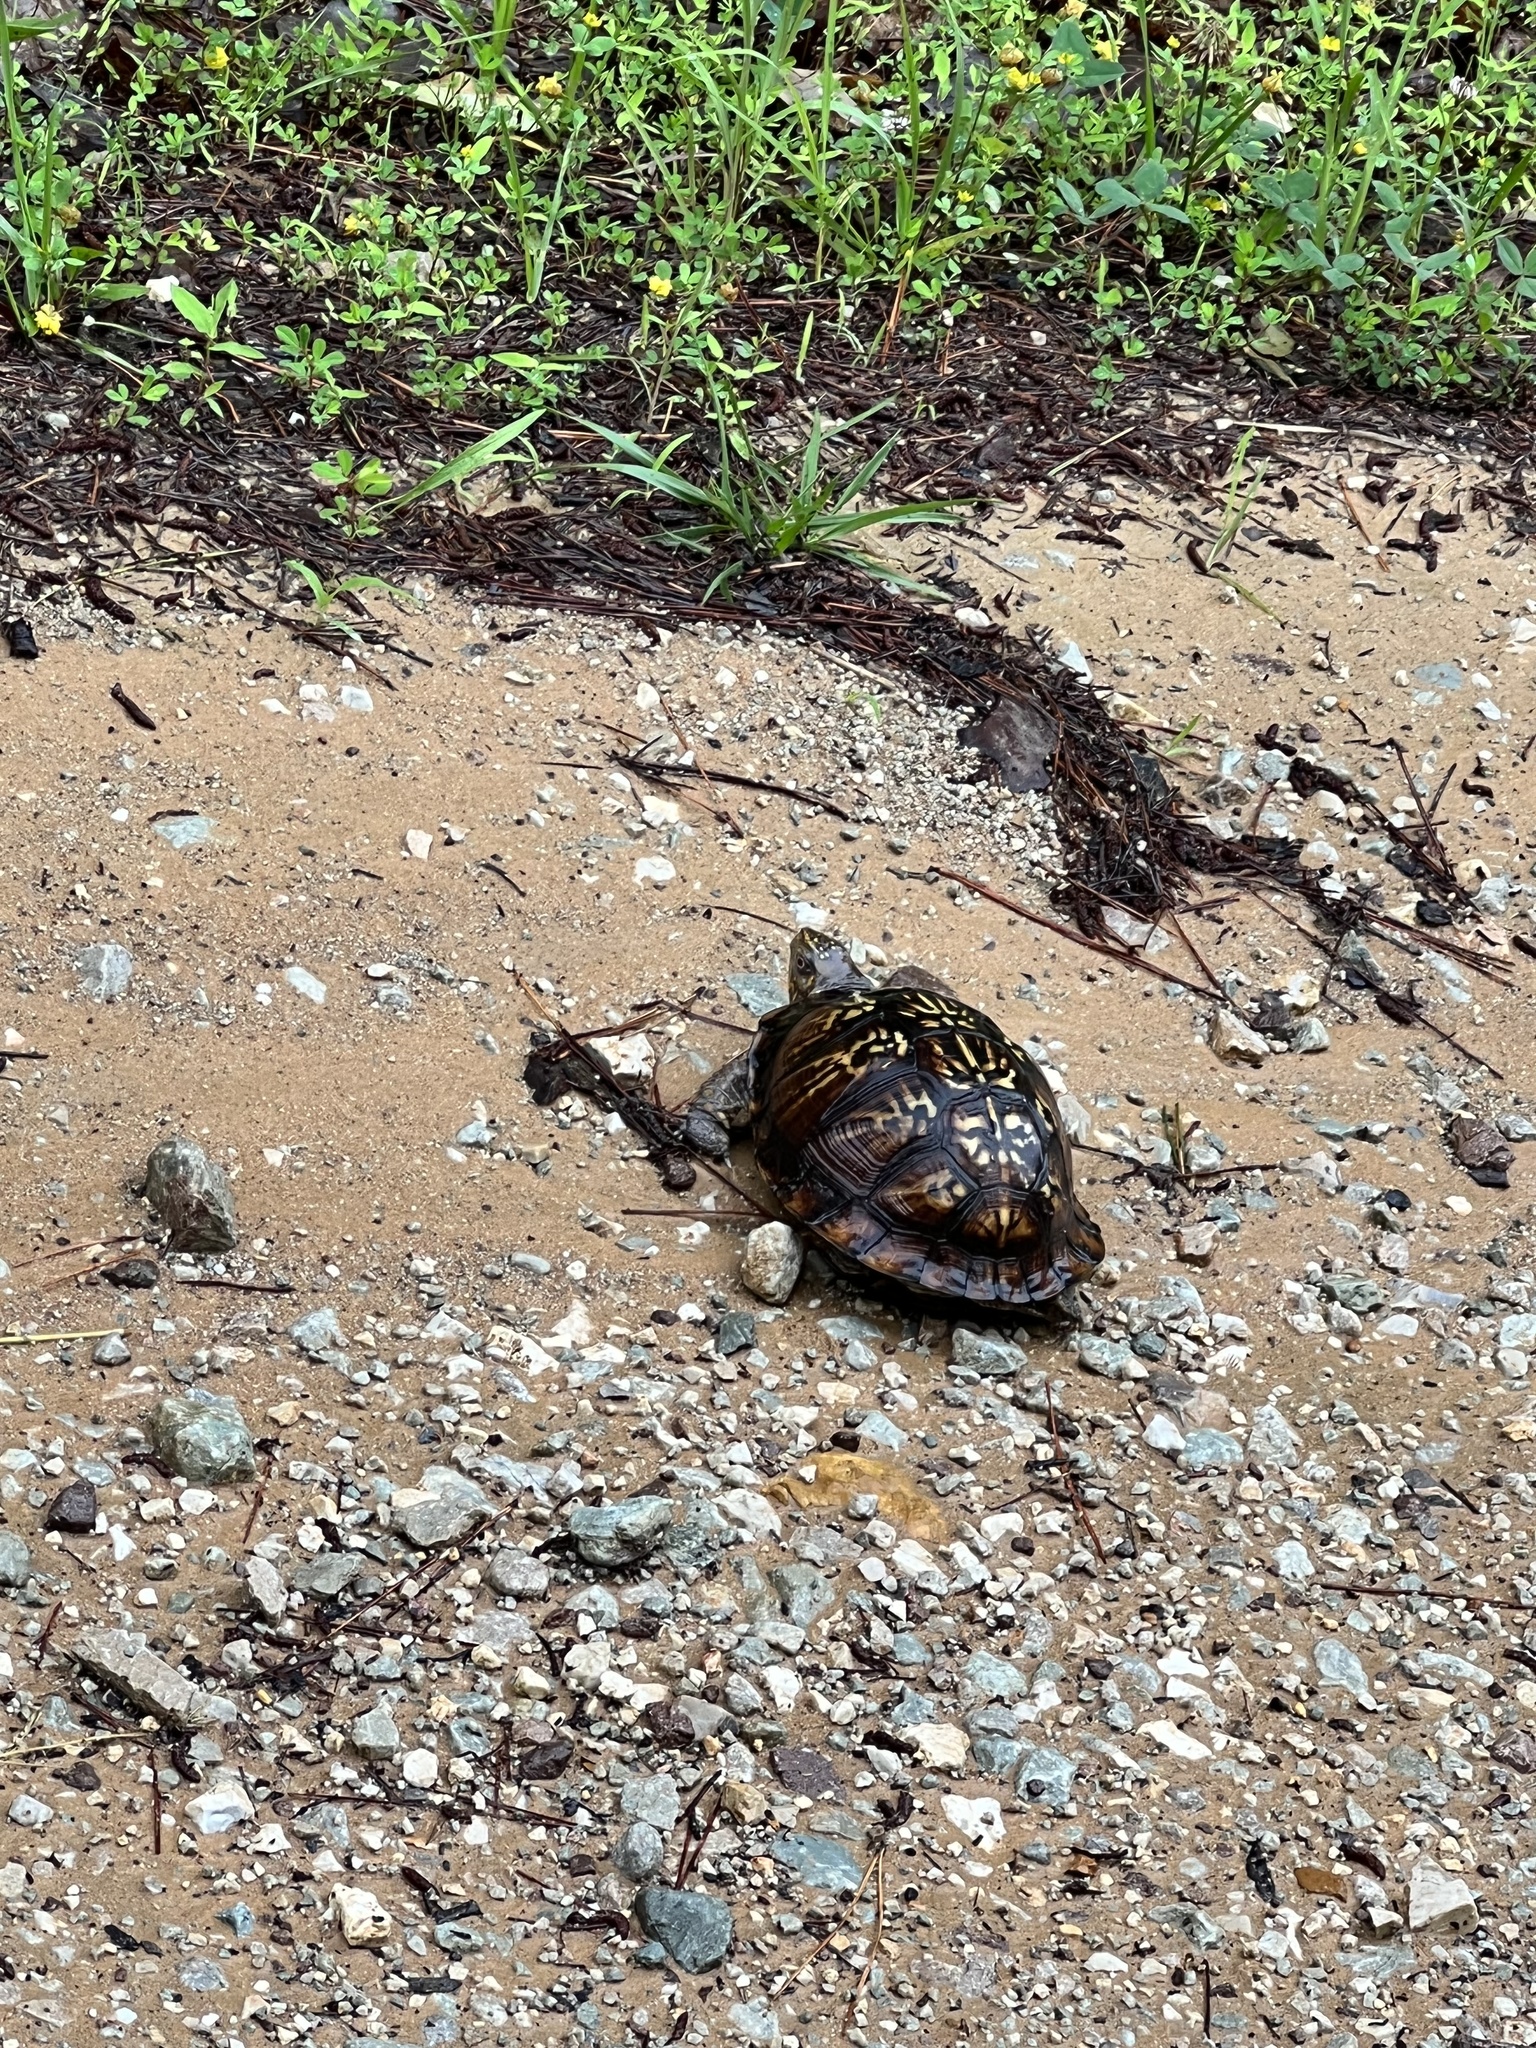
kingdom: Animalia
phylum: Chordata
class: Testudines
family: Emydidae
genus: Terrapene
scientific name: Terrapene carolina
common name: Common box turtle
